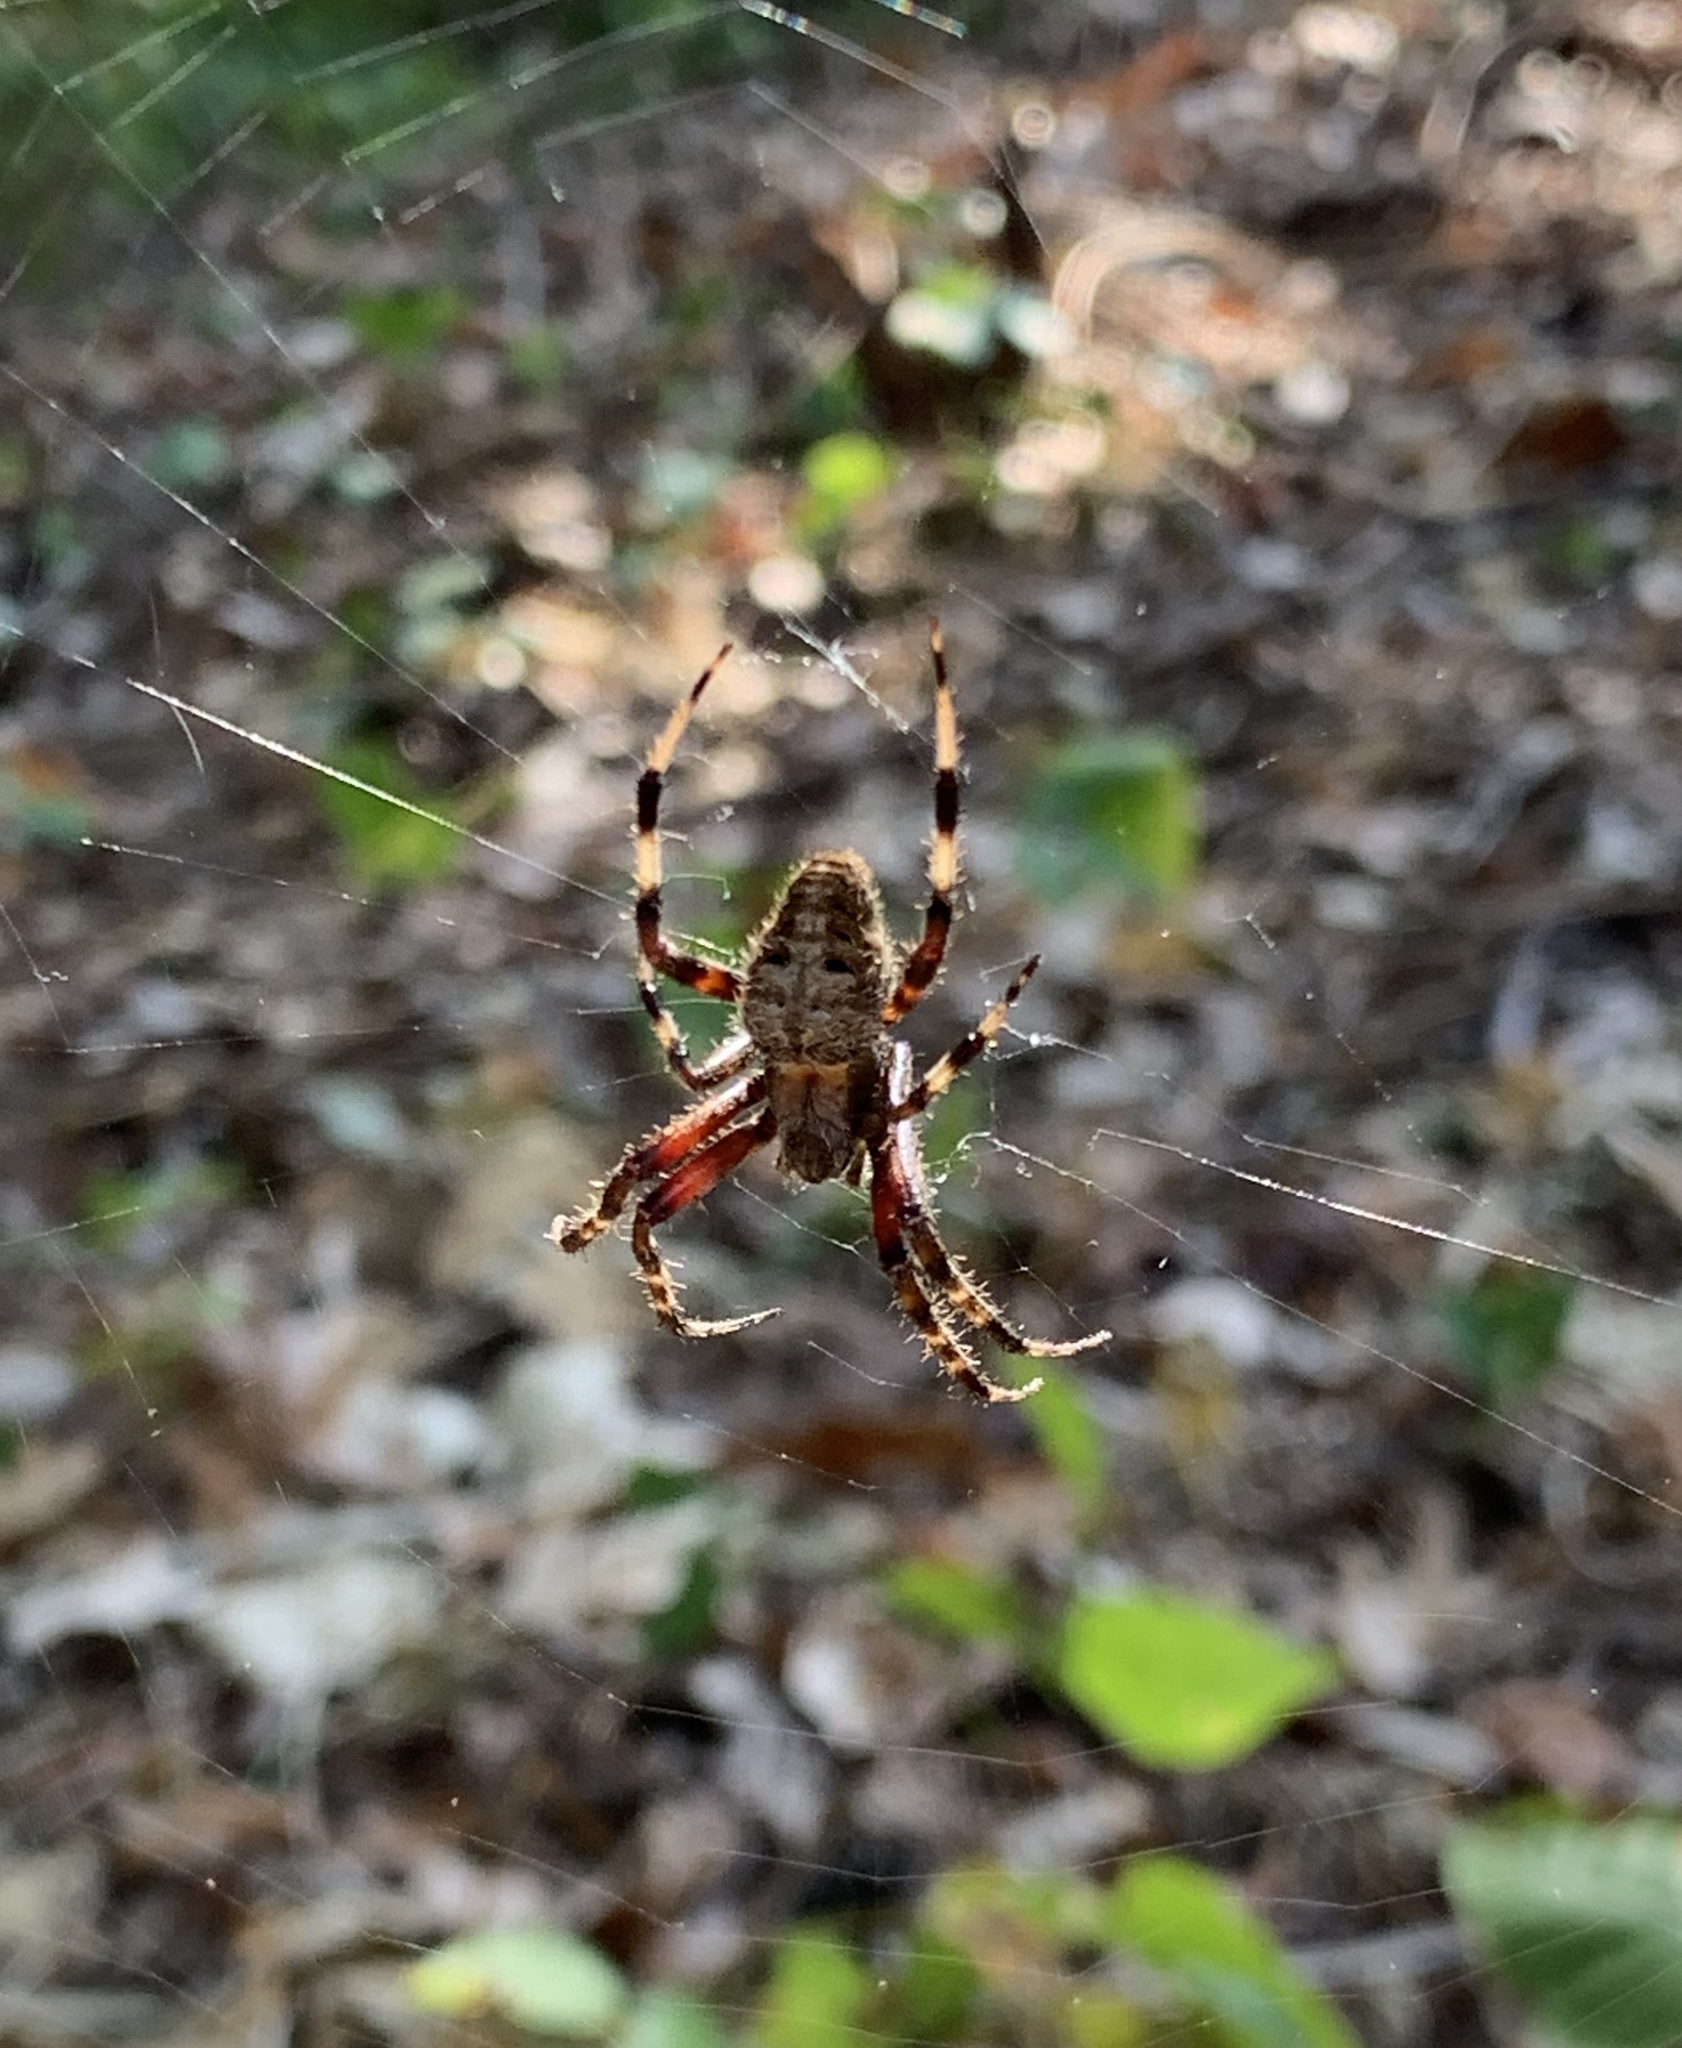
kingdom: Animalia
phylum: Arthropoda
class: Arachnida
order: Araneae
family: Araneidae
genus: Neoscona
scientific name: Neoscona domiciliorum
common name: Red-femured spotted orbweaver
